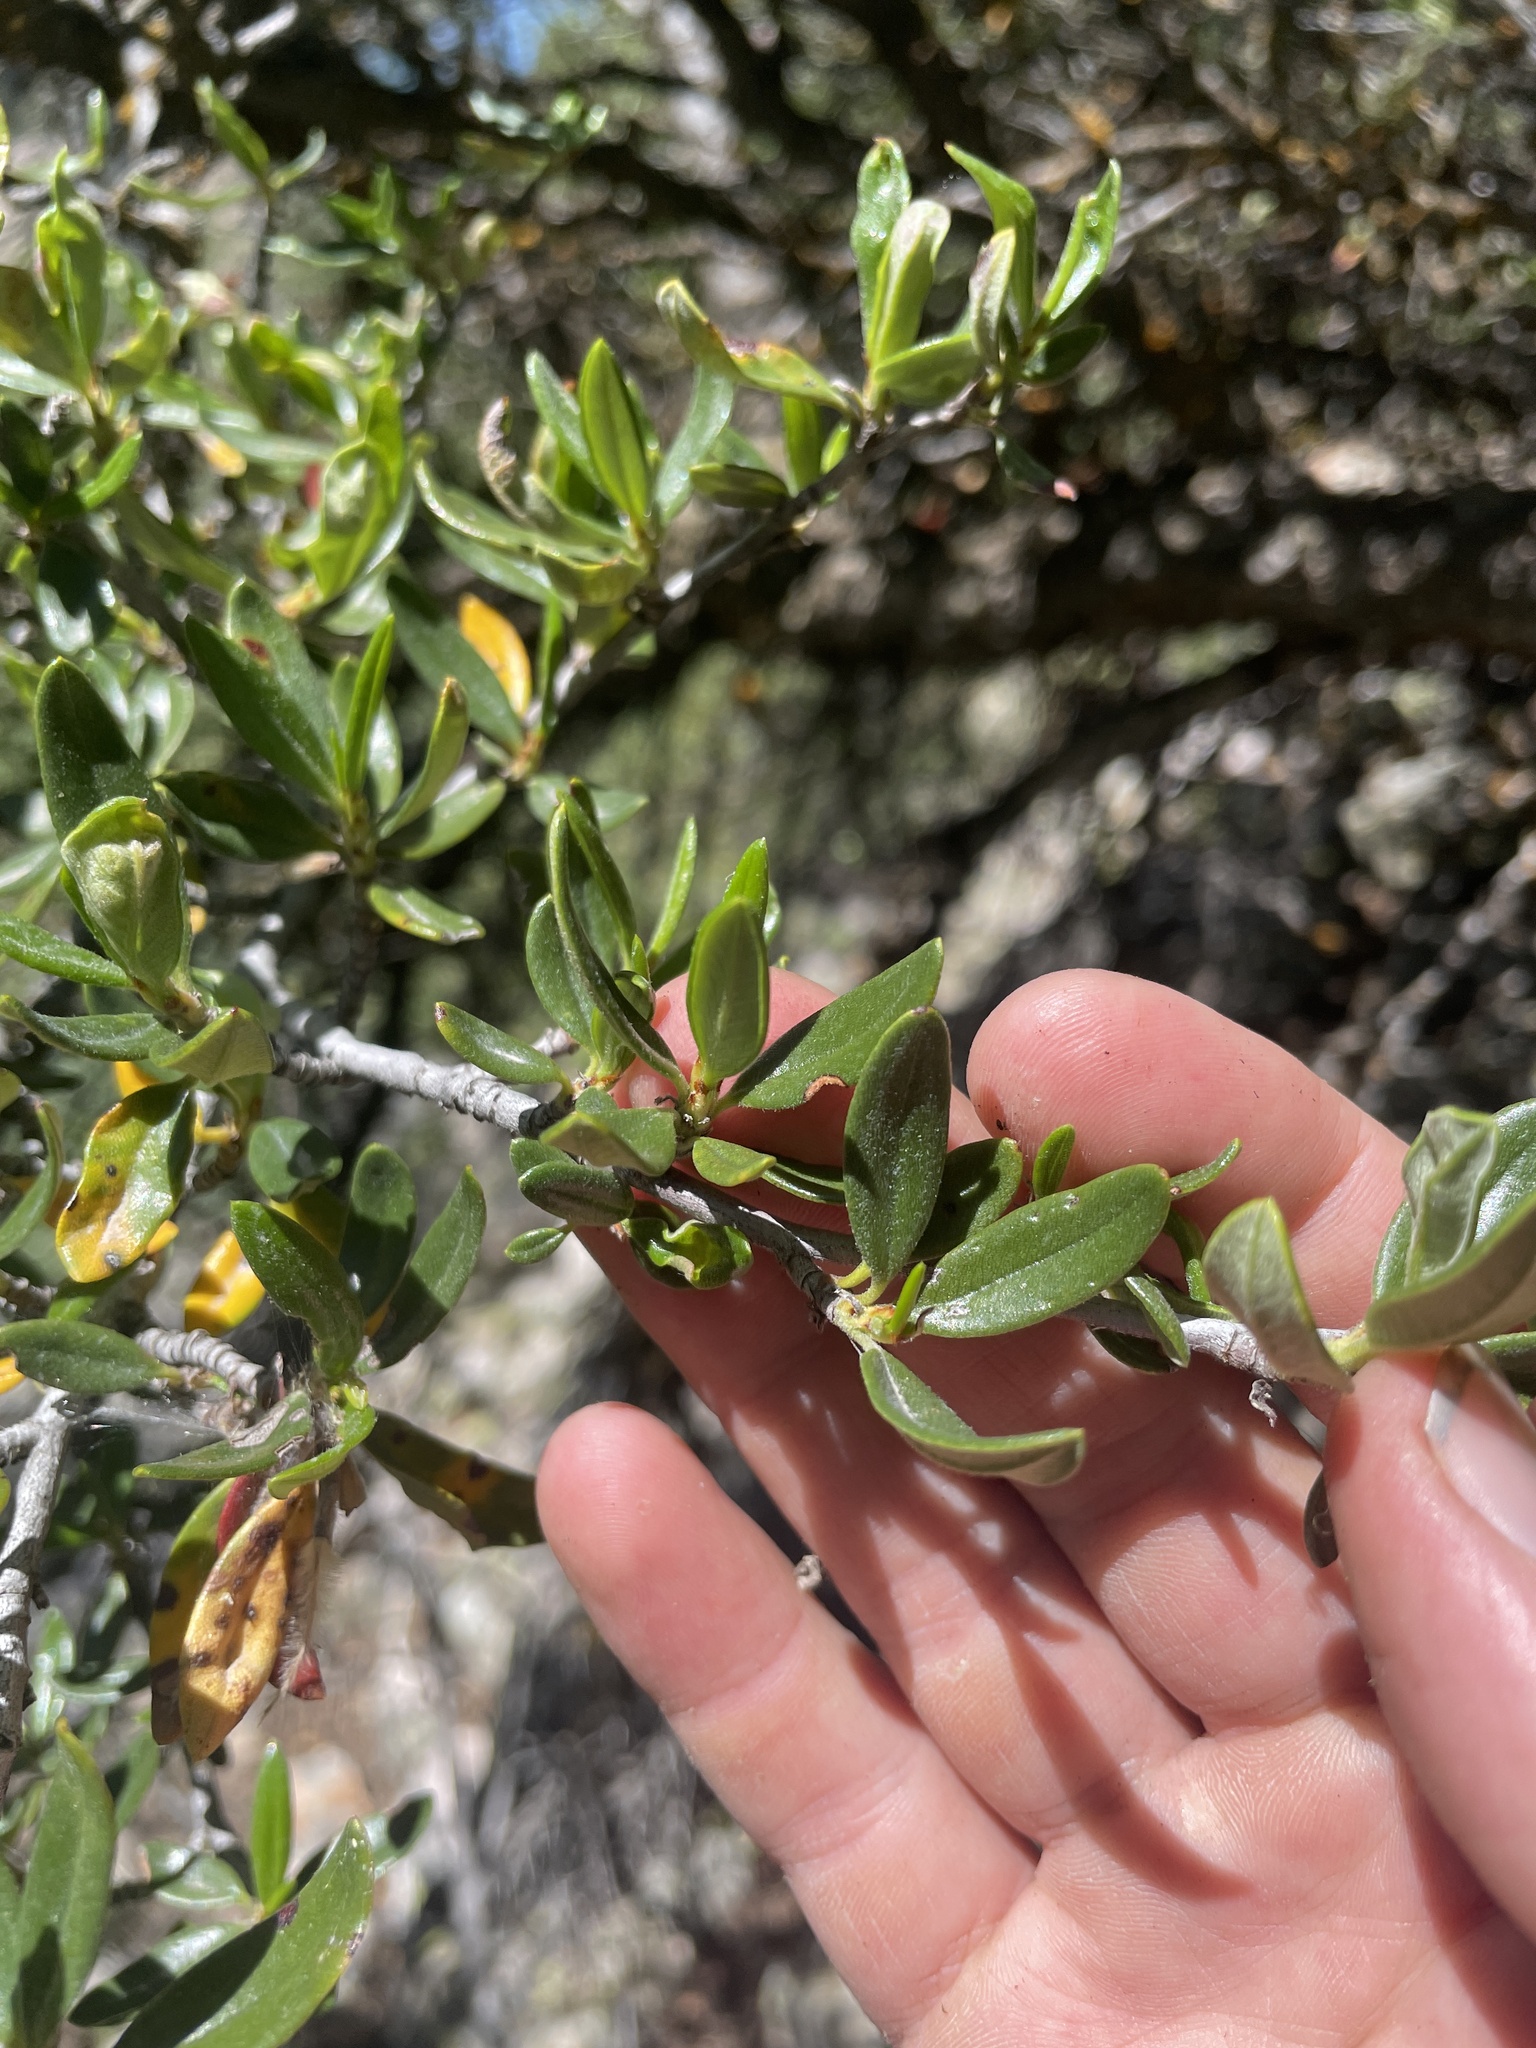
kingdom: Plantae
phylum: Tracheophyta
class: Magnoliopsida
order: Rosales
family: Rosaceae
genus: Cercocarpus
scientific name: Cercocarpus ledifolius
